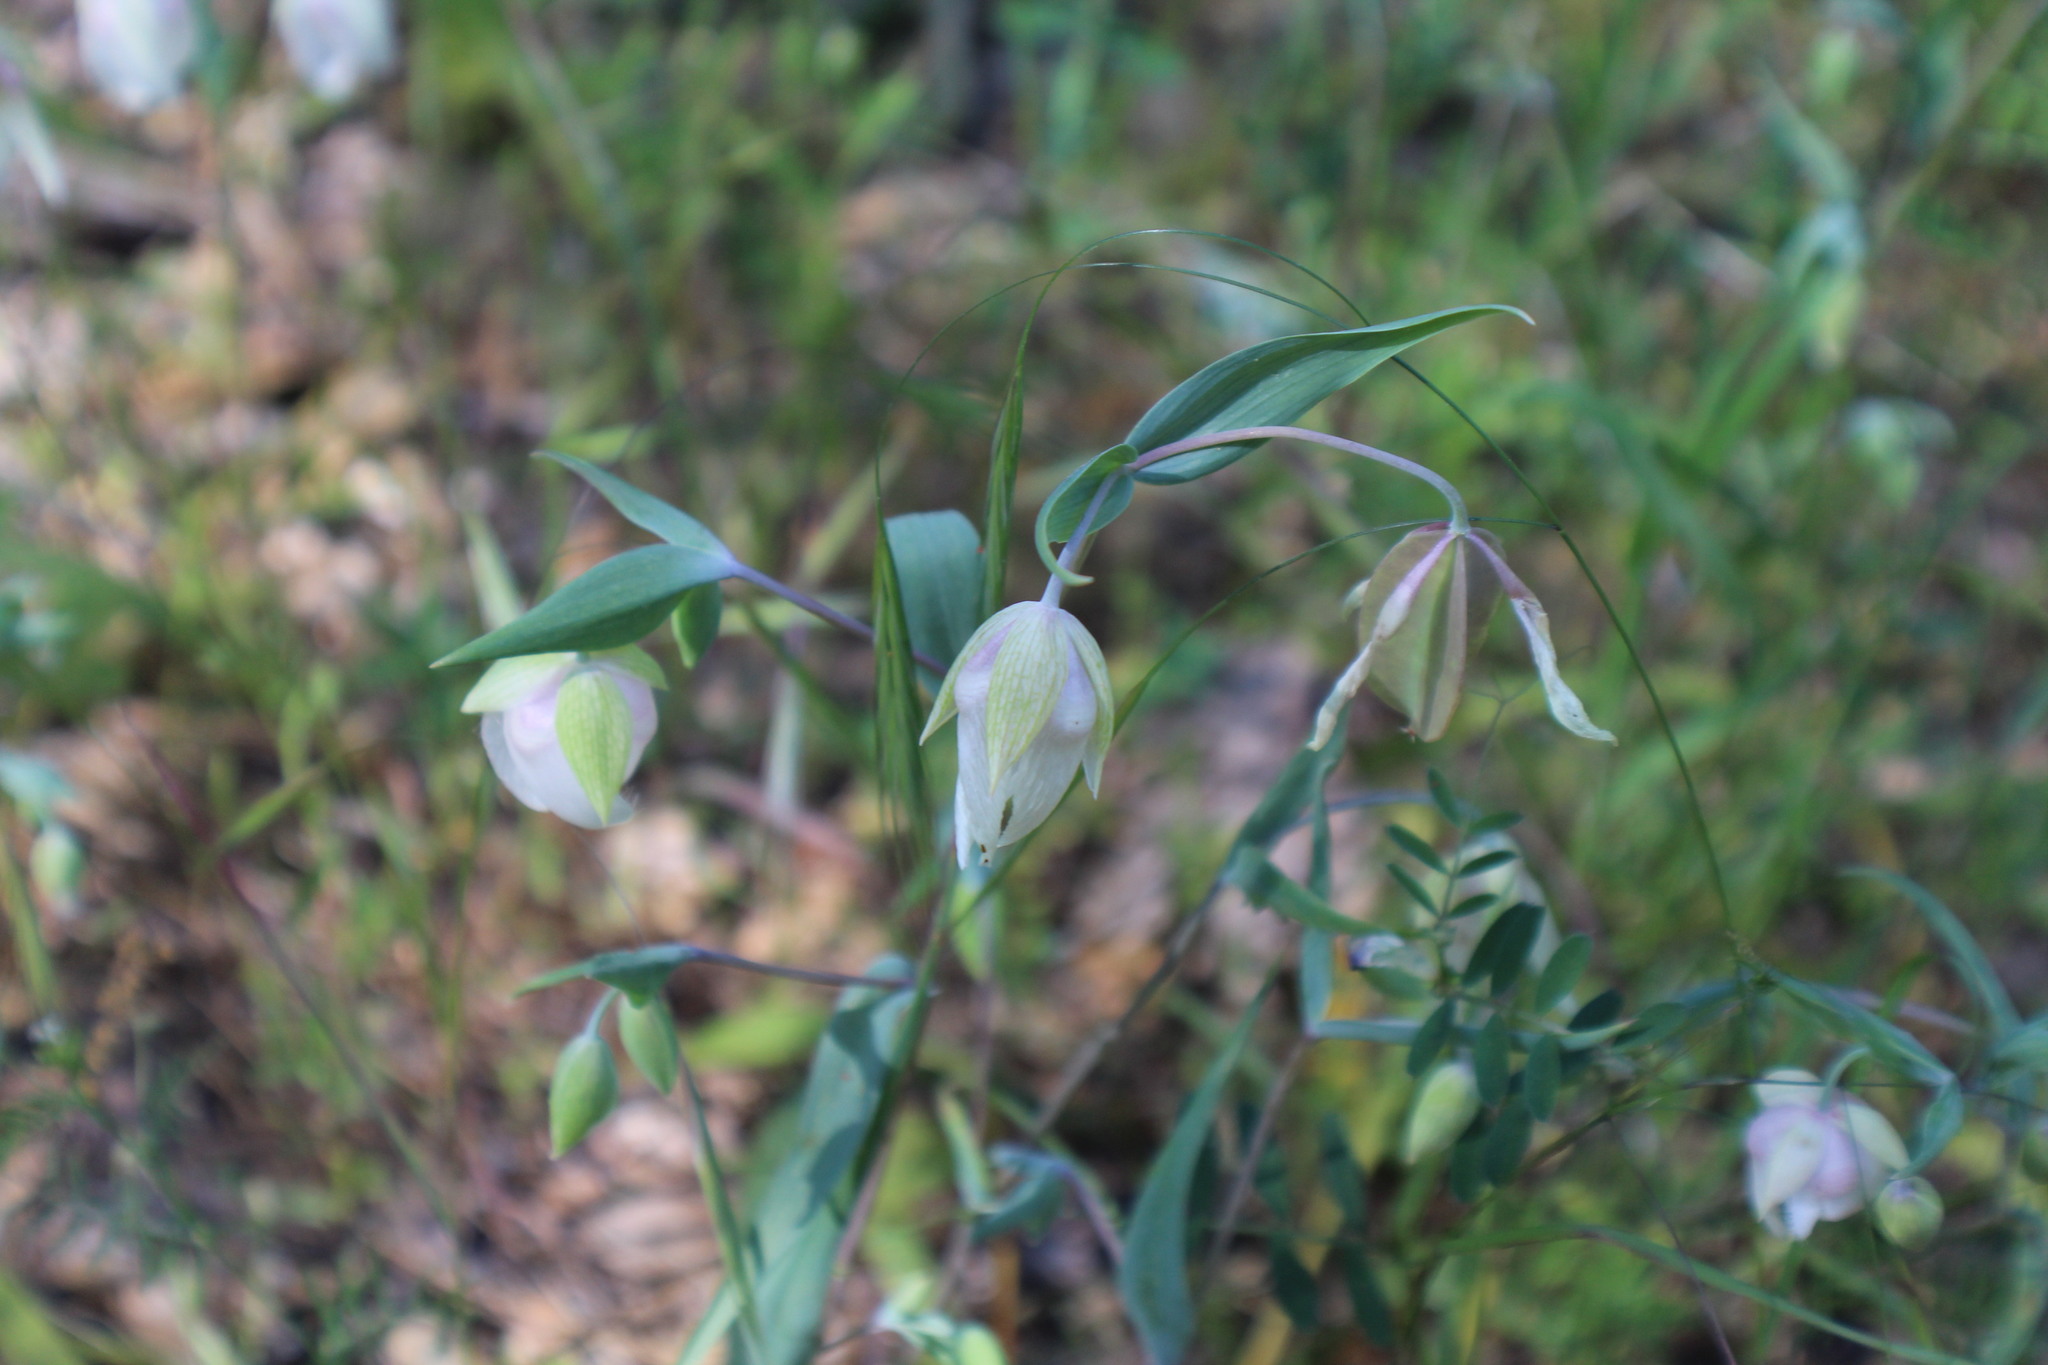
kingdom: Plantae
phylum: Tracheophyta
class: Liliopsida
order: Liliales
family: Liliaceae
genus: Calochortus
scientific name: Calochortus albus
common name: Fairy-lantern
